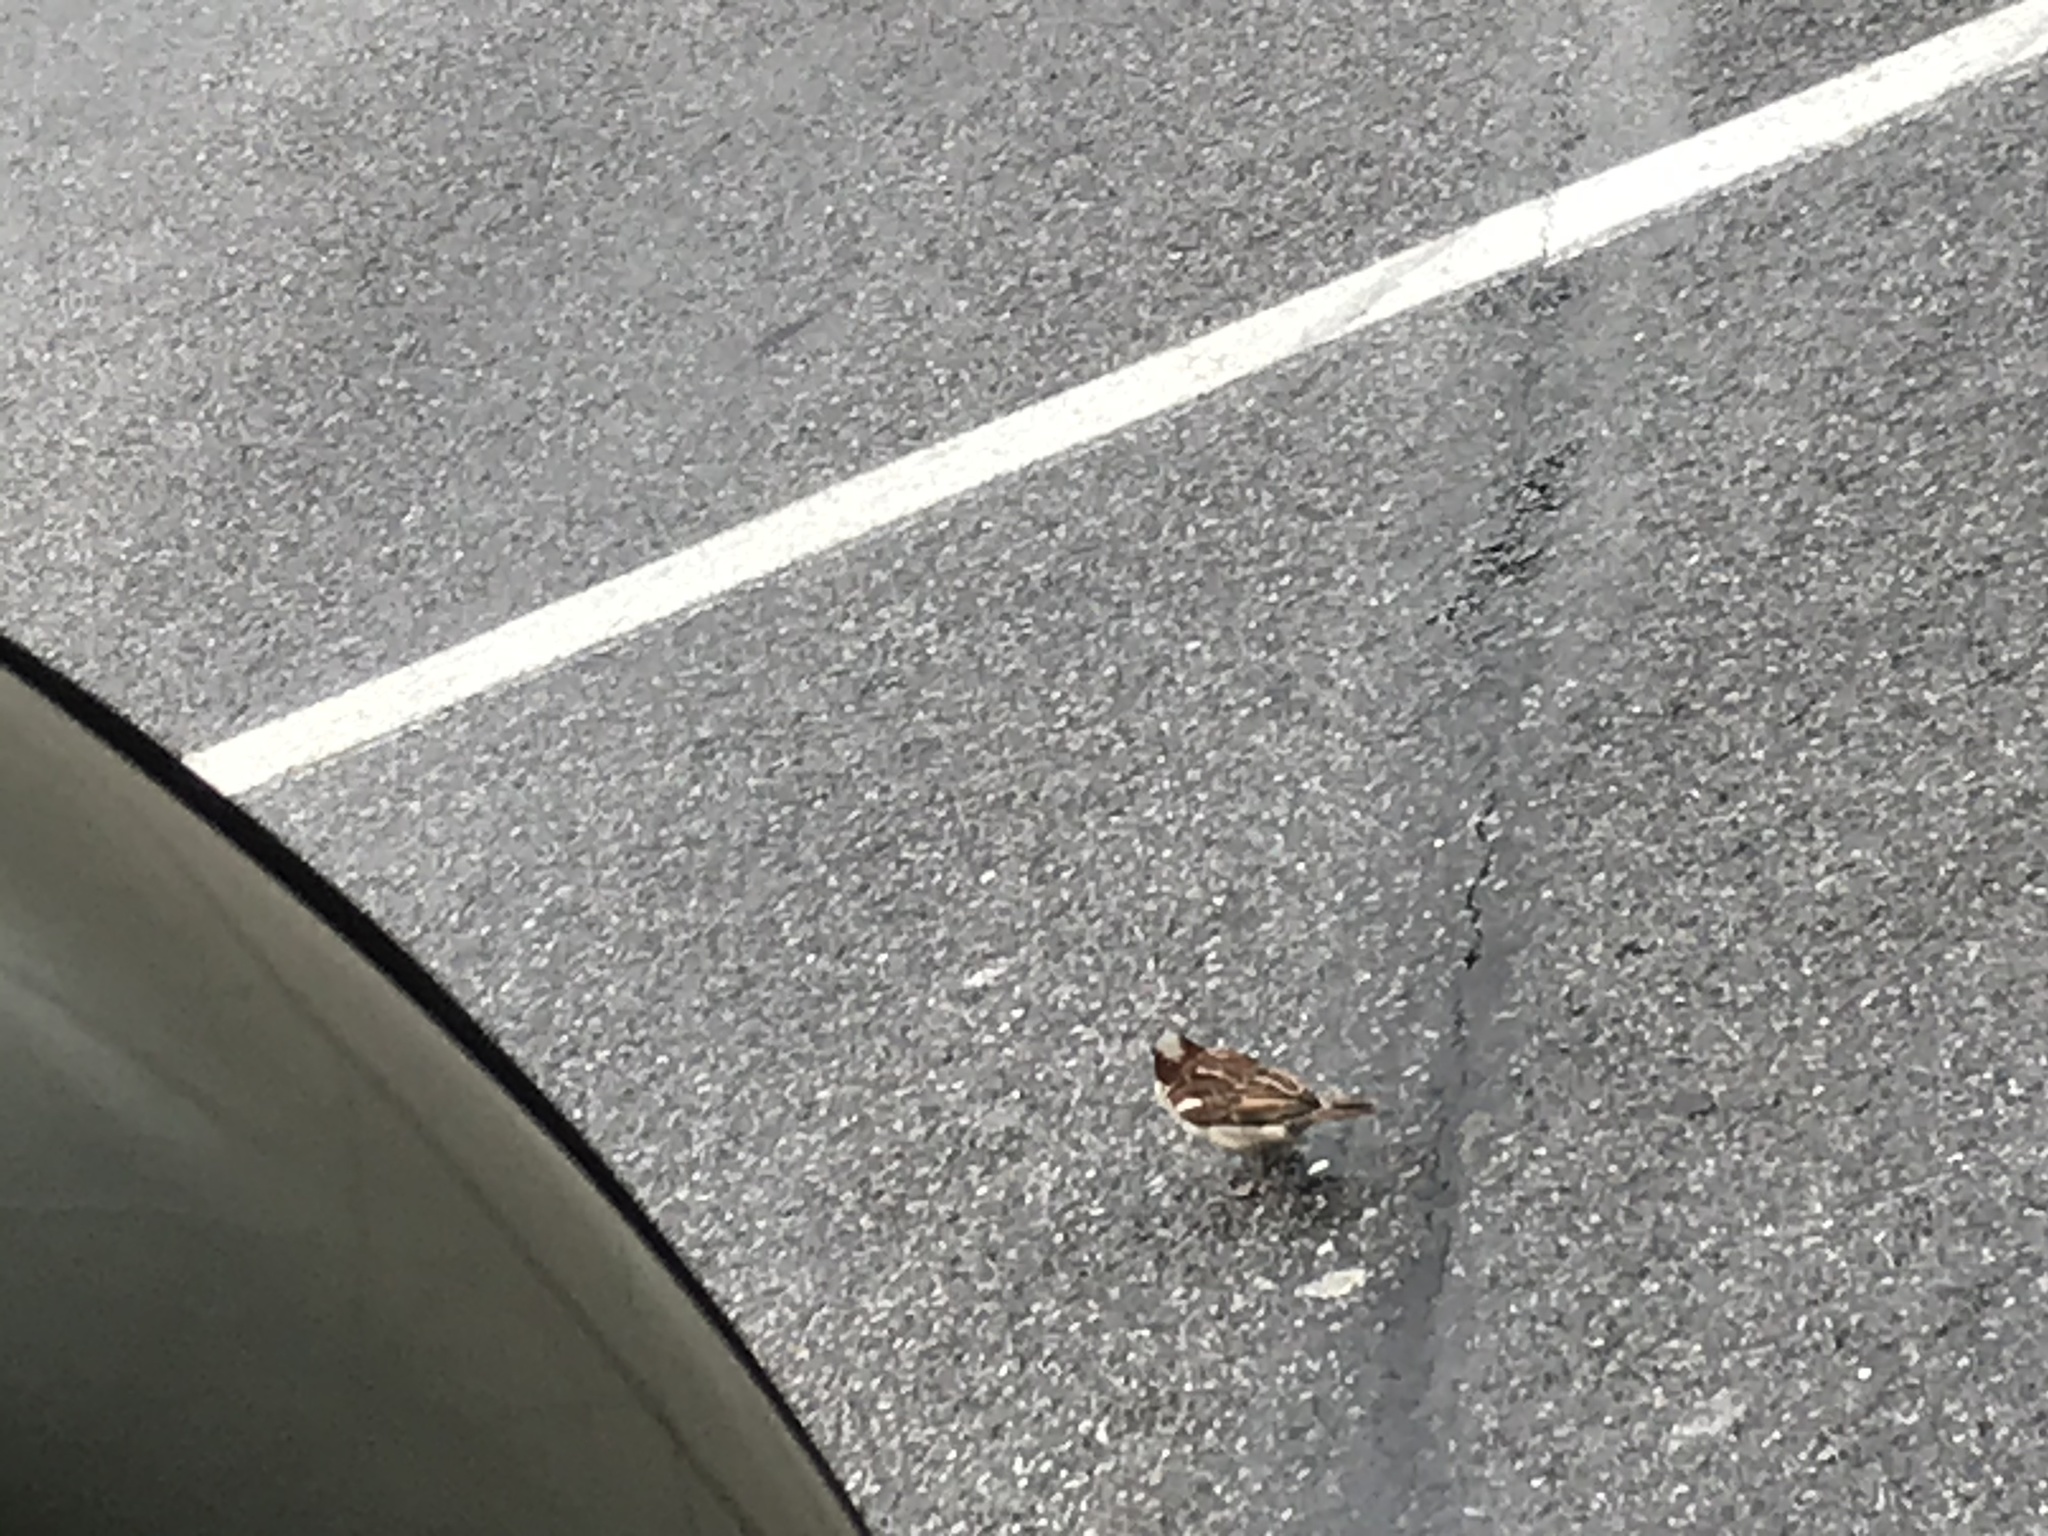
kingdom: Animalia
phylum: Chordata
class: Aves
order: Passeriformes
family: Passeridae
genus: Passer
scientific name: Passer domesticus
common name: House sparrow
